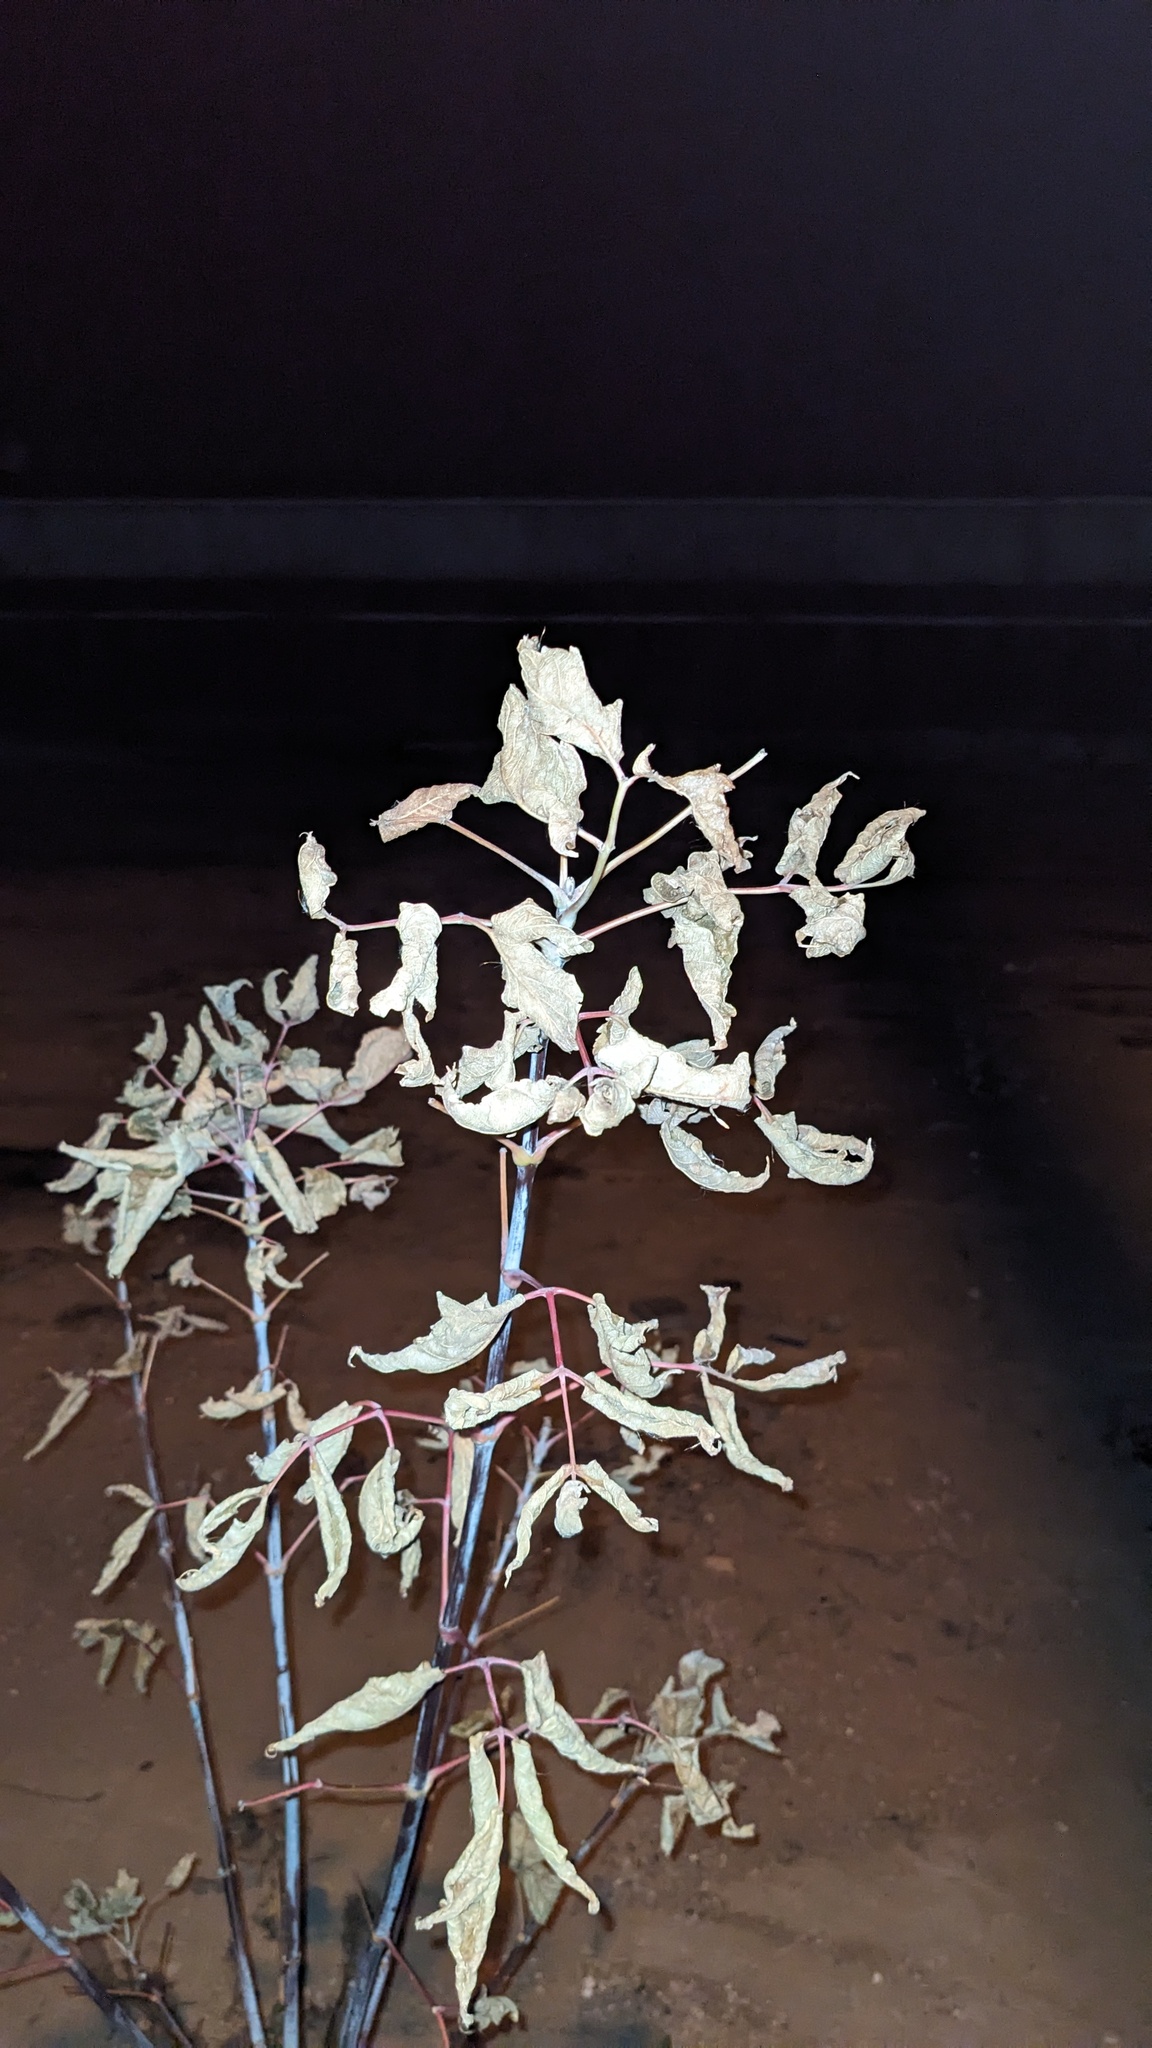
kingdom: Plantae
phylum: Tracheophyta
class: Magnoliopsida
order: Sapindales
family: Sapindaceae
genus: Acer
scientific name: Acer negundo
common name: Ashleaf maple
